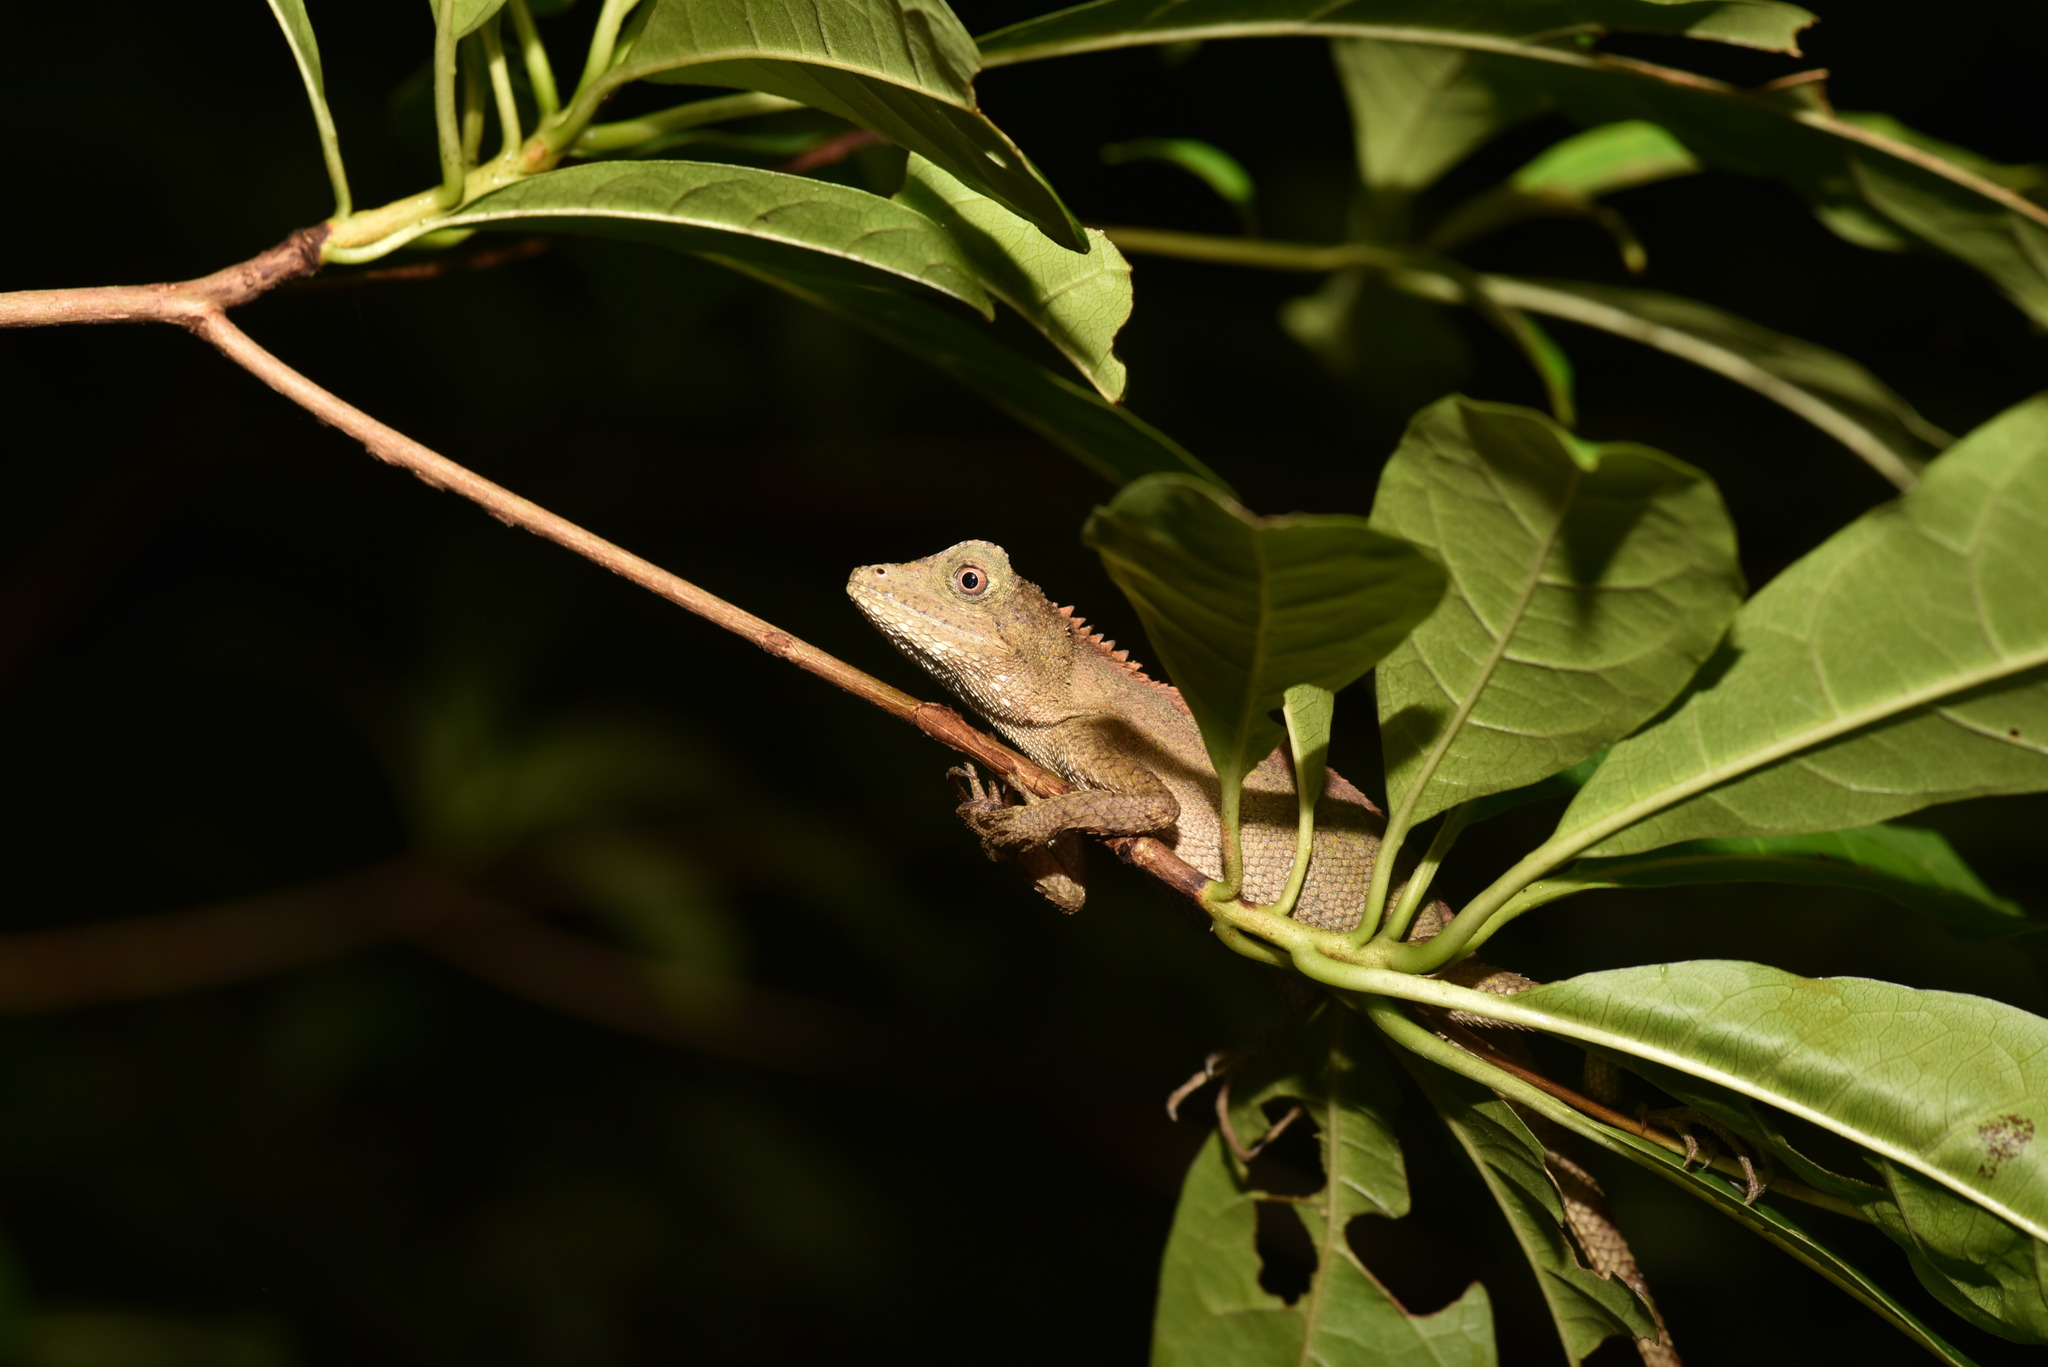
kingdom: Animalia
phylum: Chordata
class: Squamata
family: Agamidae
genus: Diploderma
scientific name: Diploderma swinhonis
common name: Taiwan japalure
